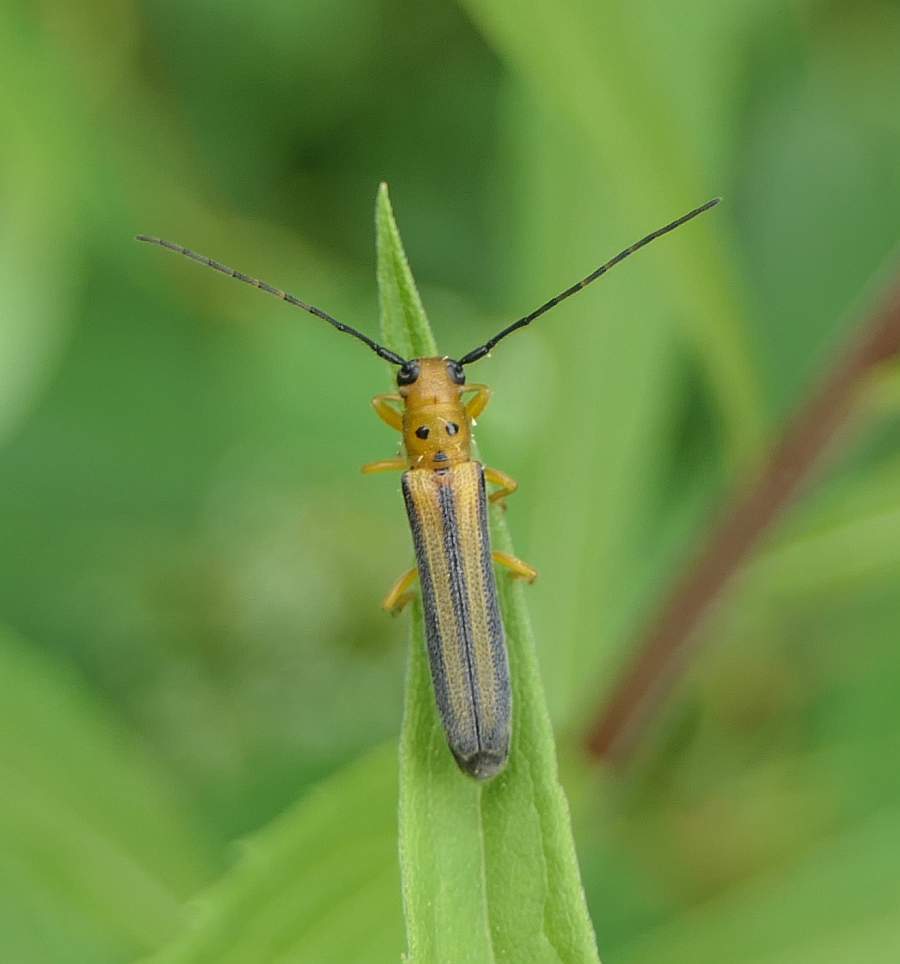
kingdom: Animalia
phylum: Arthropoda
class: Insecta
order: Coleoptera
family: Cerambycidae
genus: Oberea
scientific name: Oberea tripunctata
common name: Dogwood twig borer
